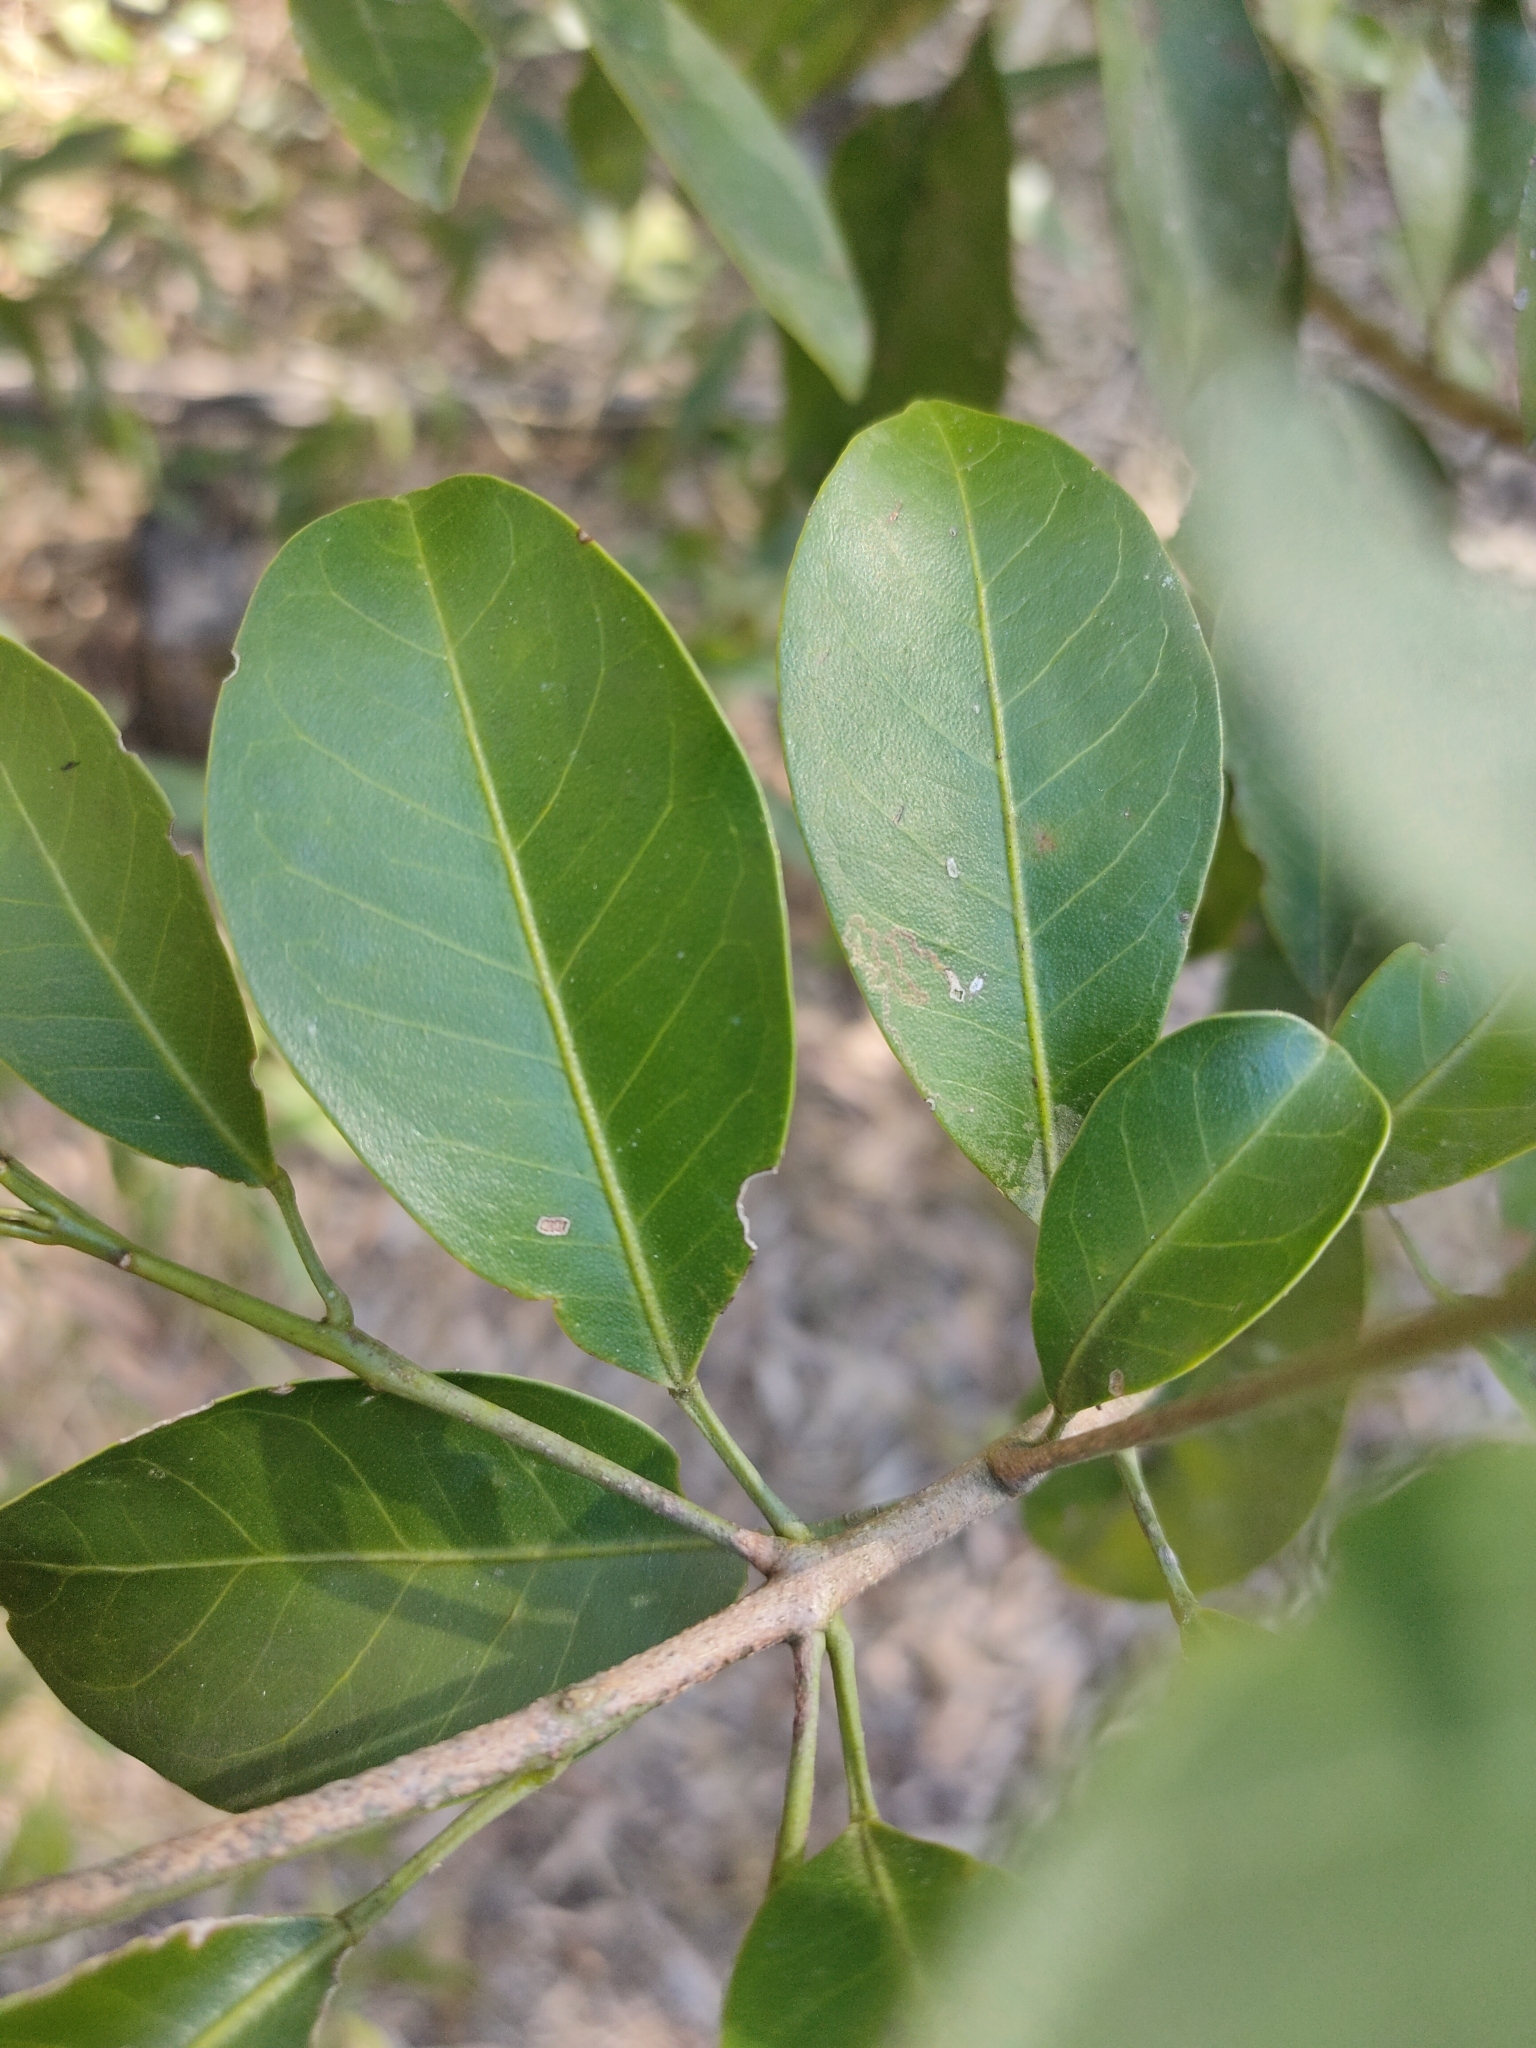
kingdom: Plantae
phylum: Tracheophyta
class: Magnoliopsida
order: Sapindales
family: Rutaceae
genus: Acronychia
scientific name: Acronychia laevis
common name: Hard aspen
